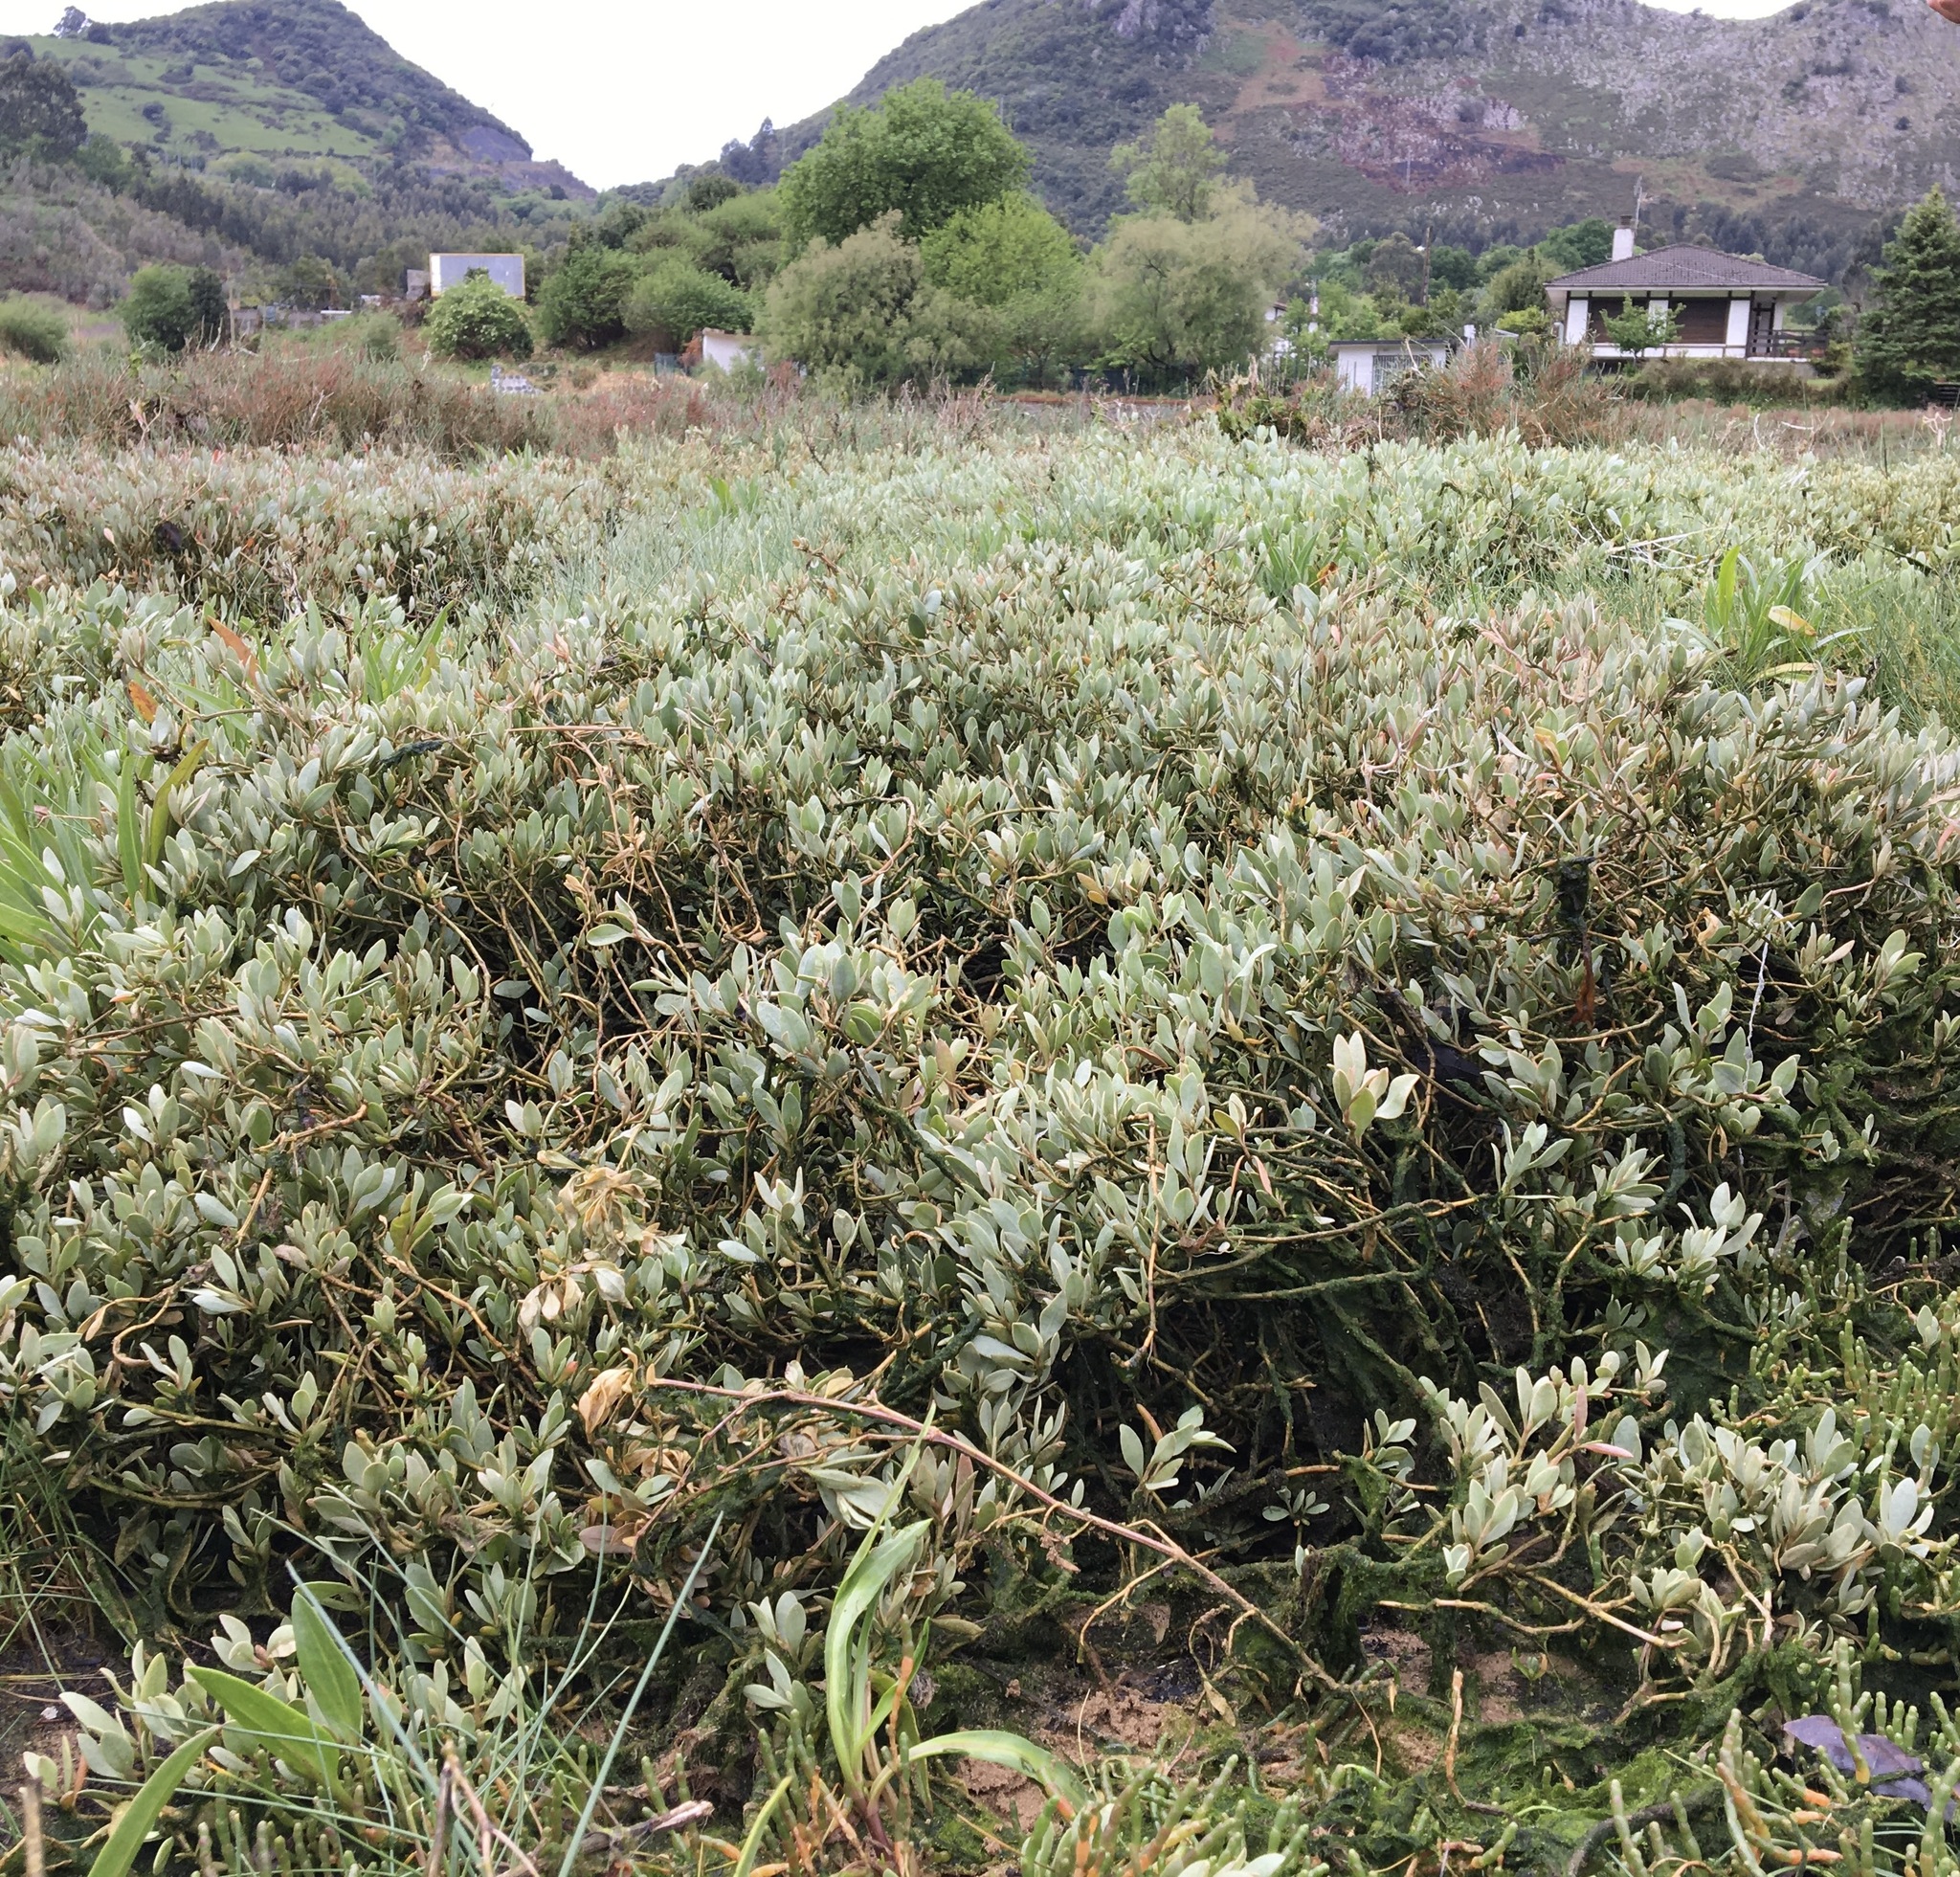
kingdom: Plantae
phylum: Tracheophyta
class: Magnoliopsida
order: Caryophyllales
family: Amaranthaceae
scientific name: Amaranthaceae
